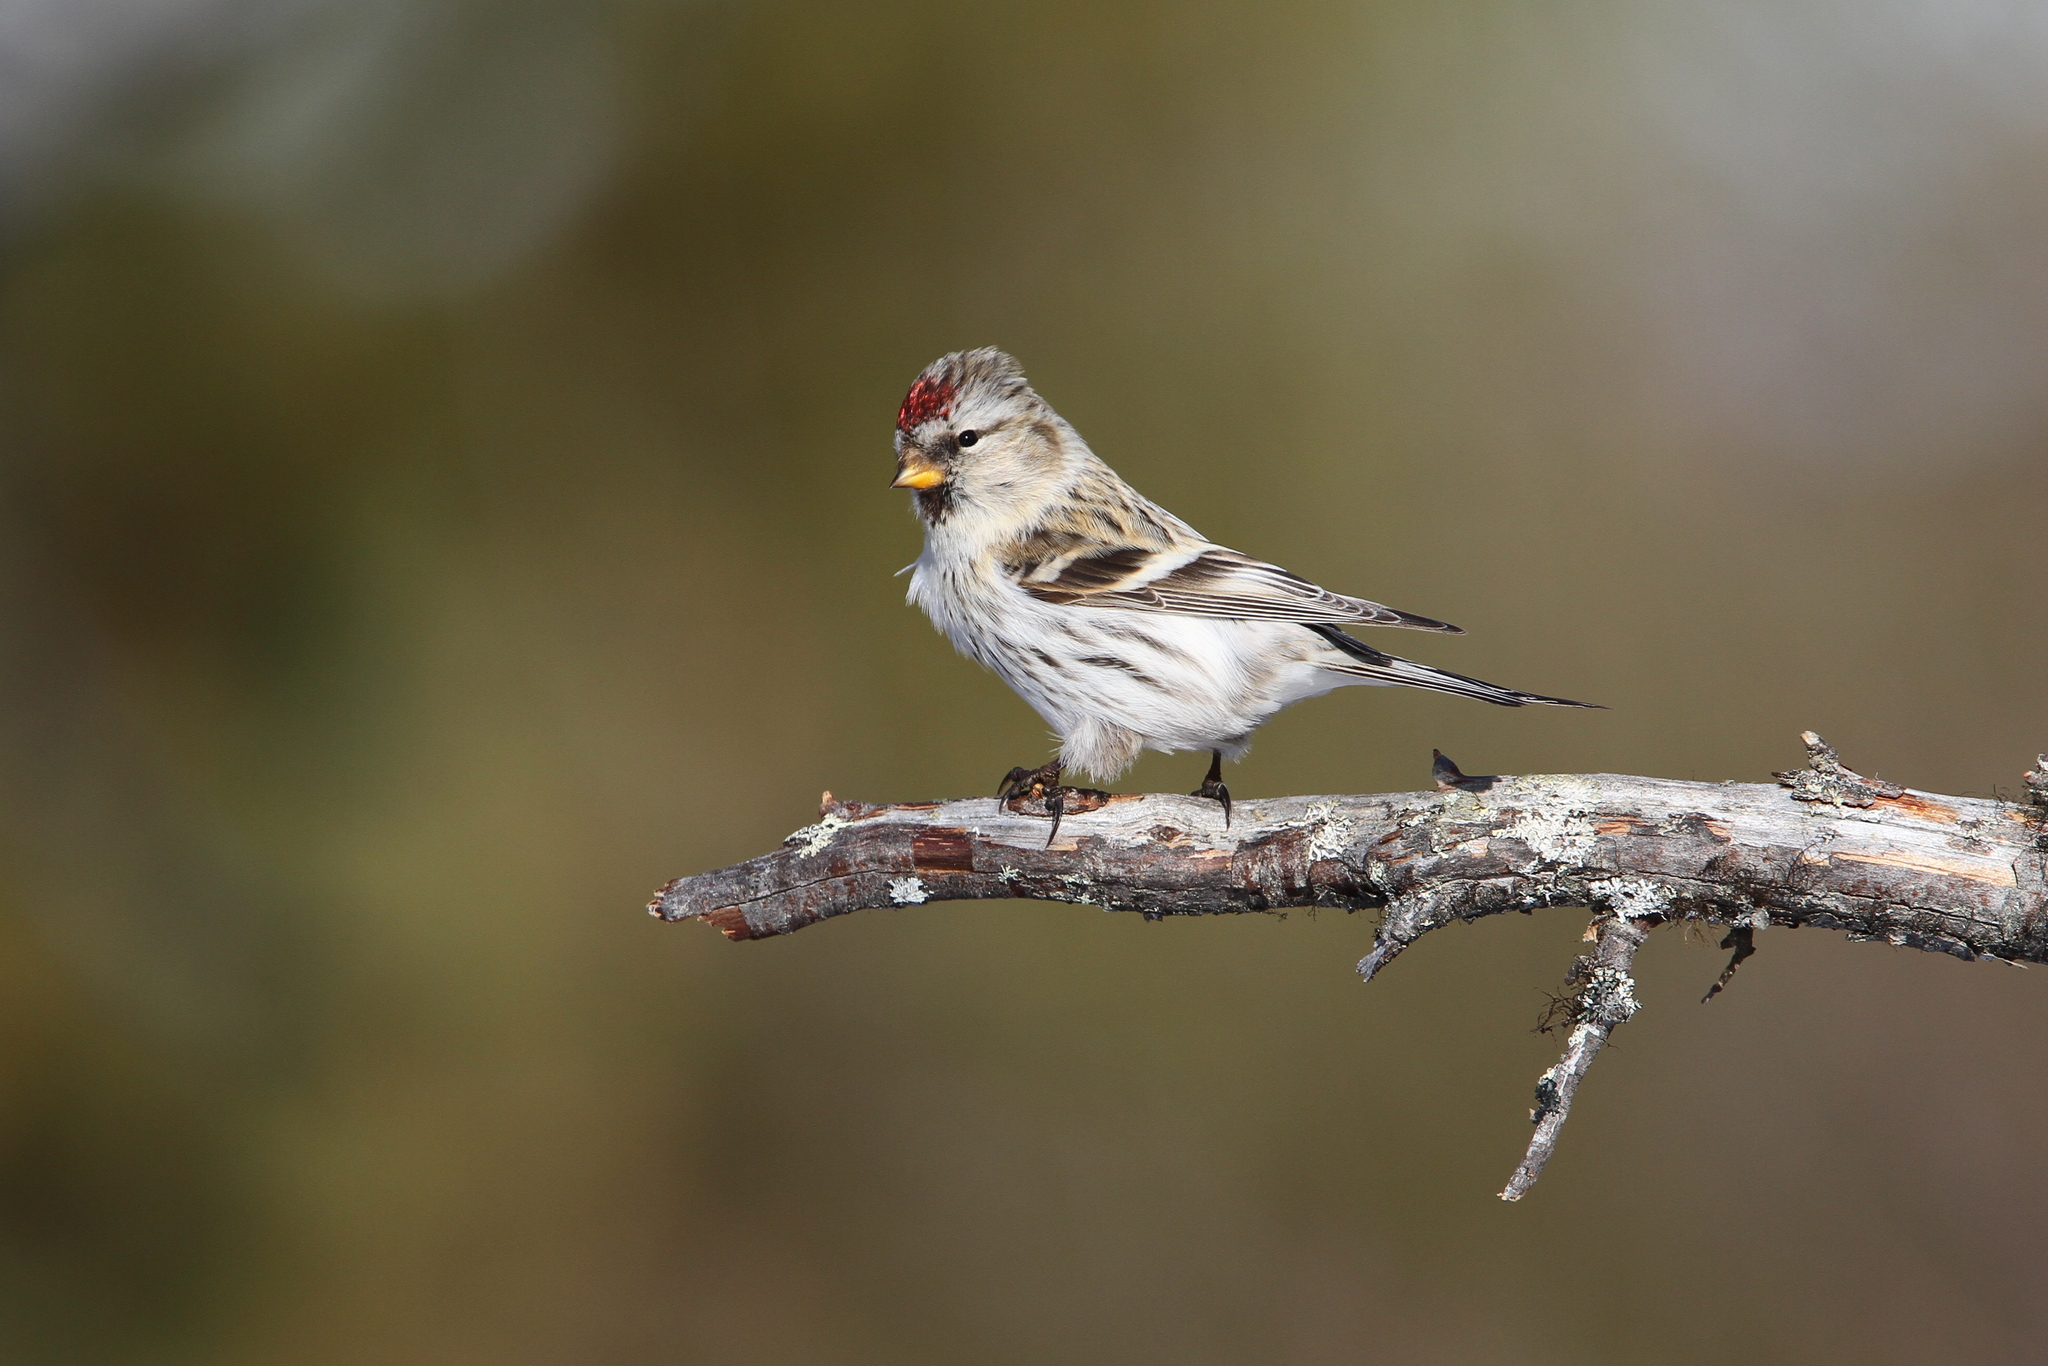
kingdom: Animalia
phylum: Chordata
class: Aves
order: Passeriformes
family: Fringillidae
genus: Acanthis
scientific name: Acanthis hornemanni
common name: Arctic redpoll
